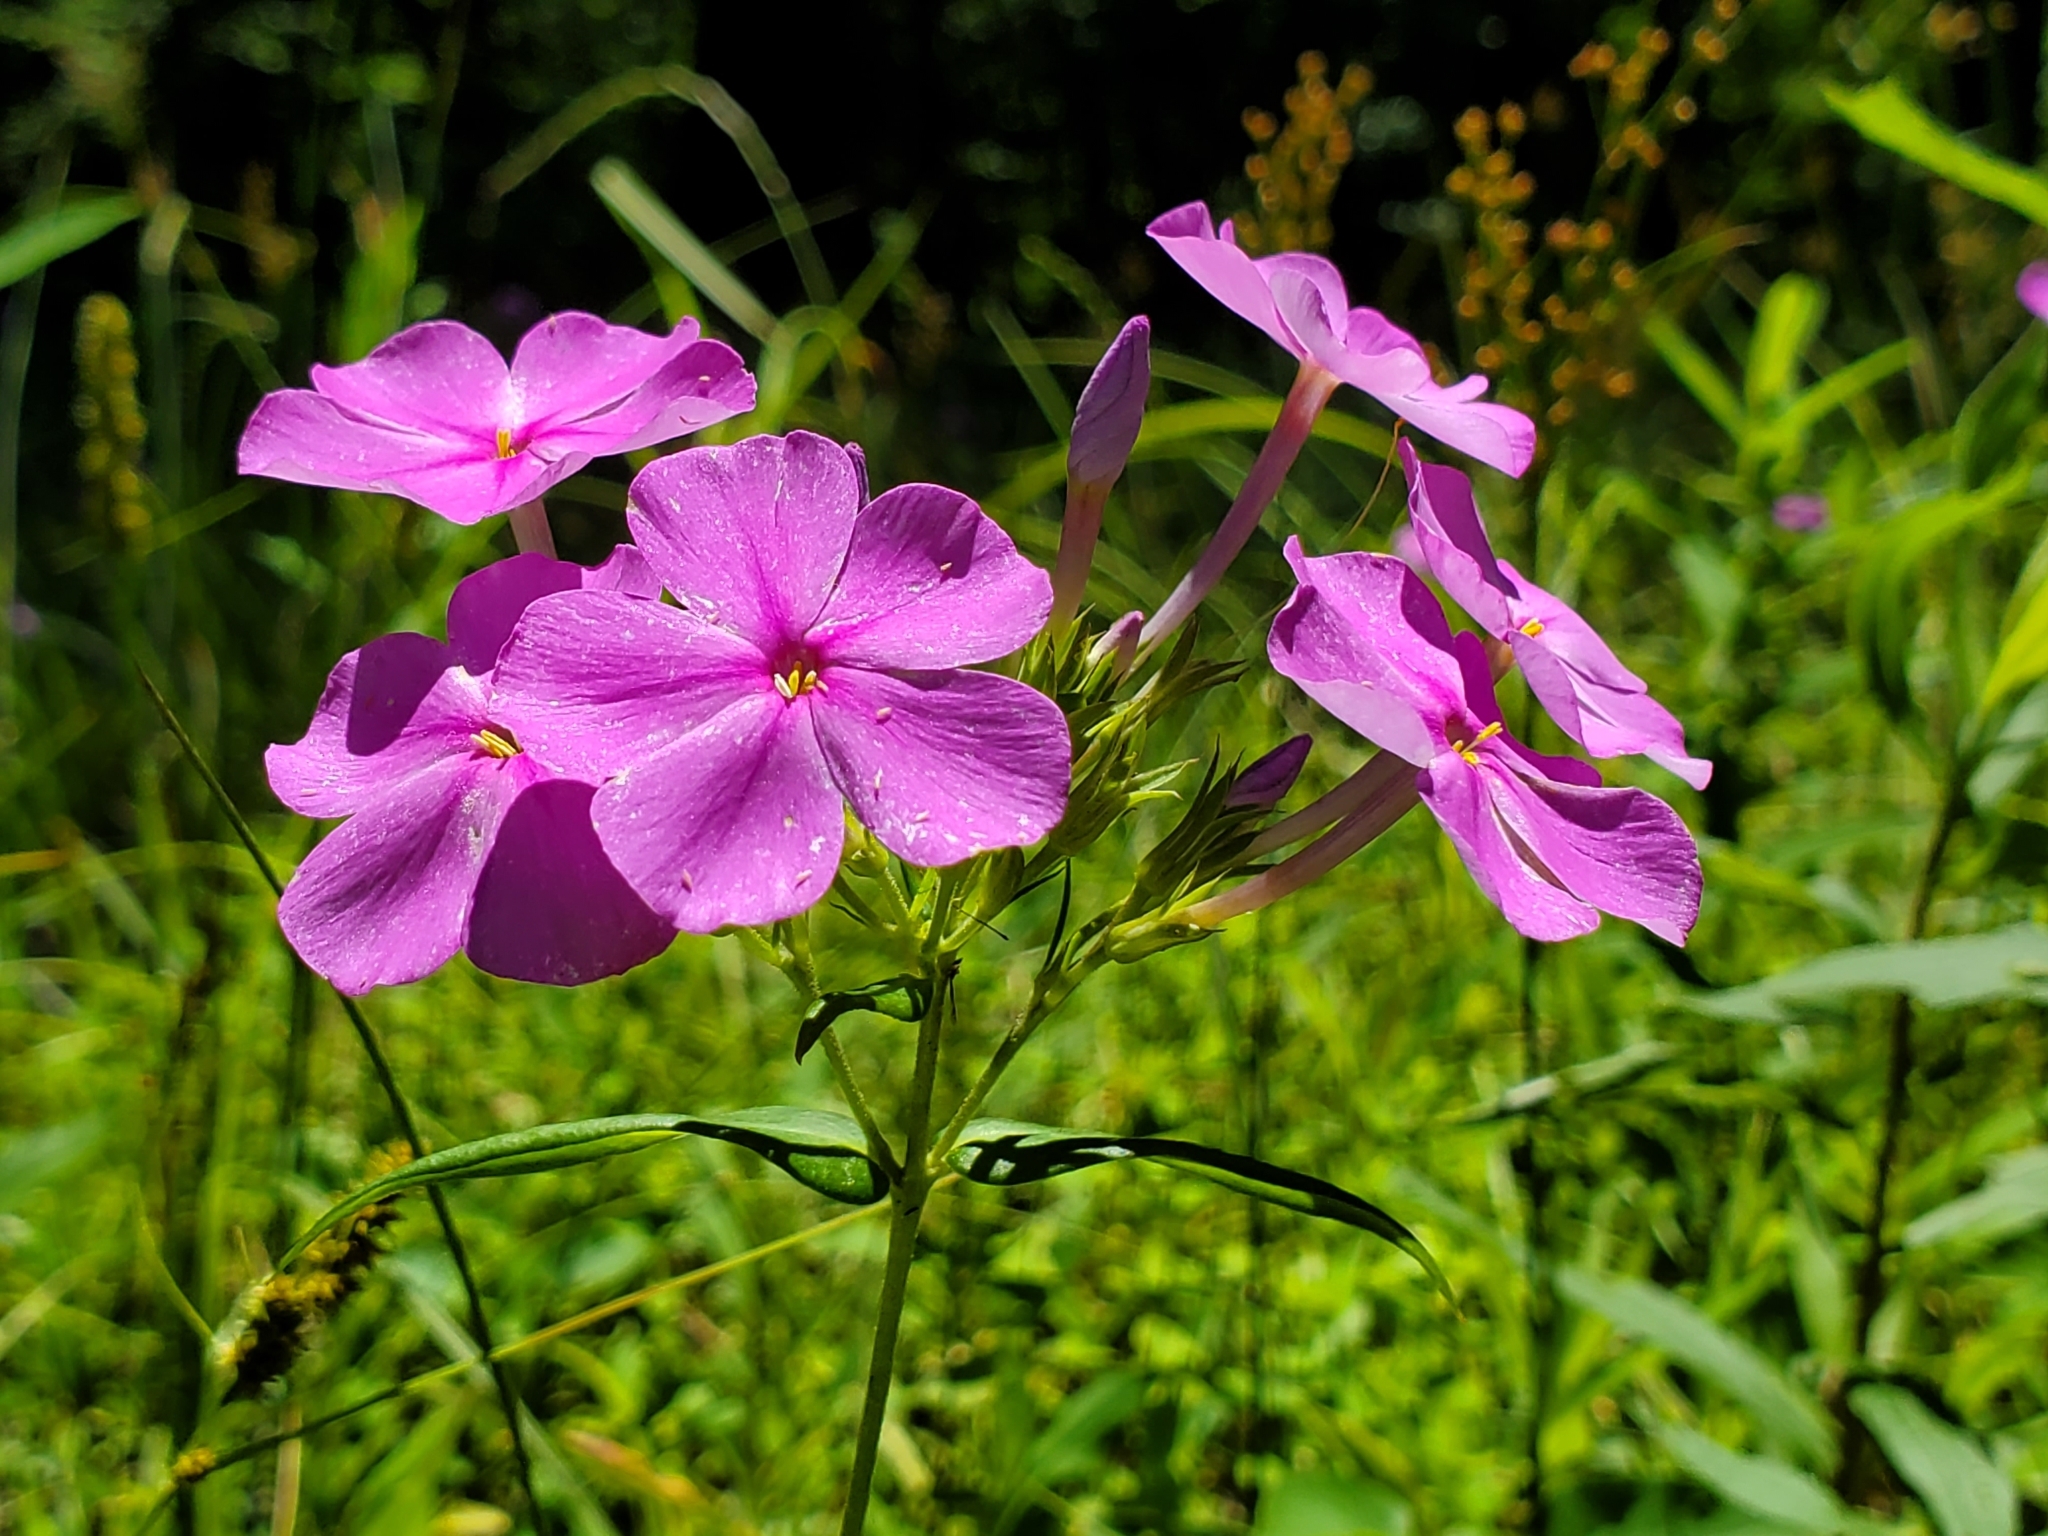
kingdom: Plantae
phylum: Tracheophyta
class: Magnoliopsida
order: Ericales
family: Polemoniaceae
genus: Phlox
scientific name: Phlox carolina
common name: Thick-leaf phlox
